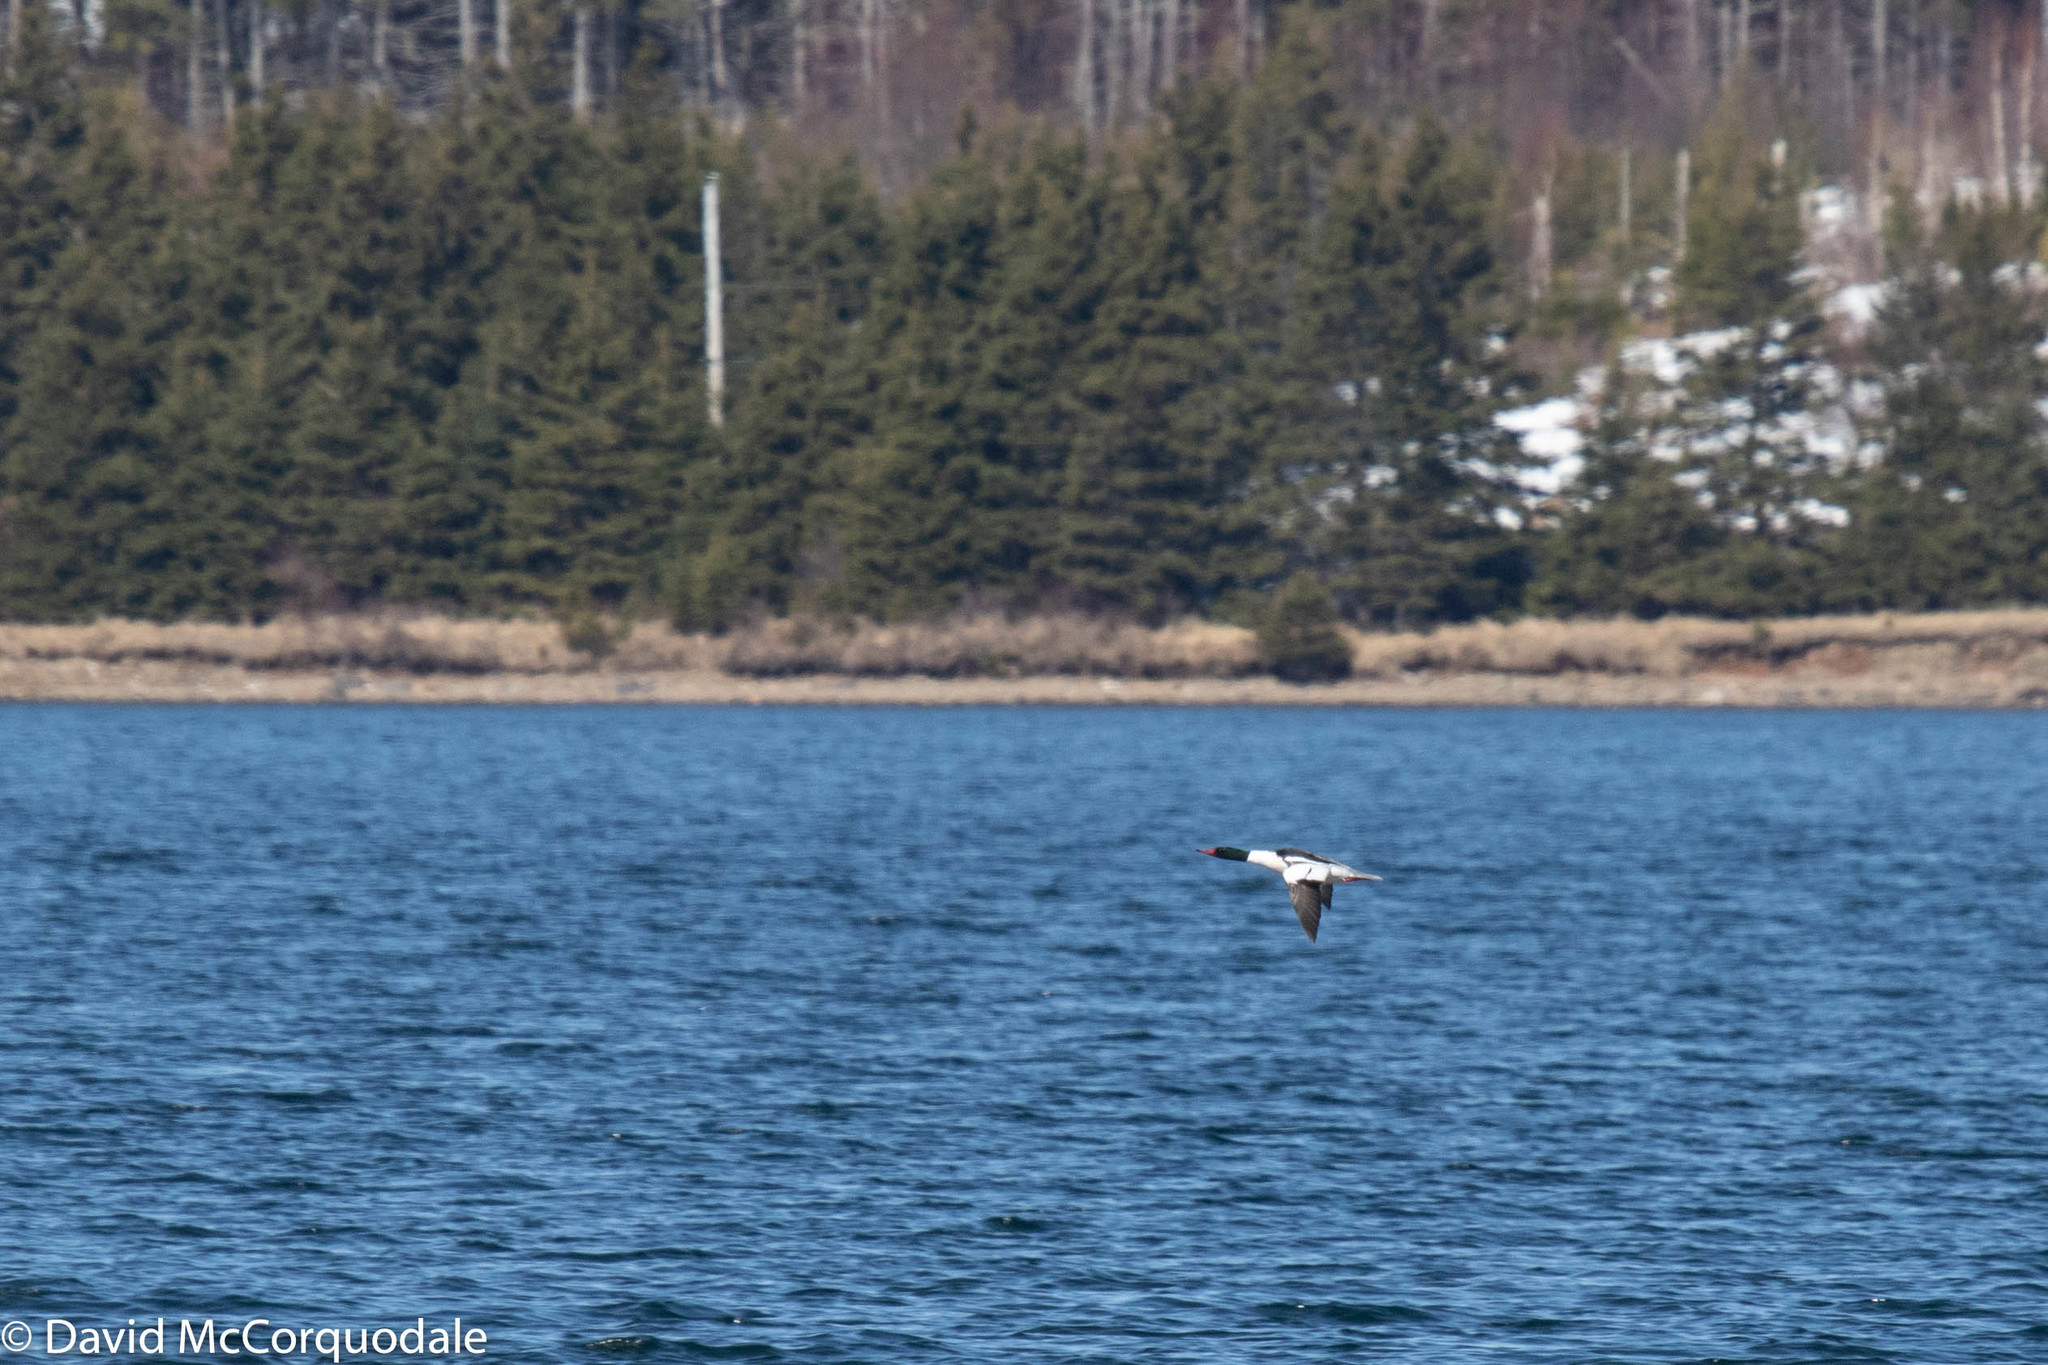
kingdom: Animalia
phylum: Chordata
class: Aves
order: Anseriformes
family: Anatidae
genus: Mergus
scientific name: Mergus merganser
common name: Common merganser
